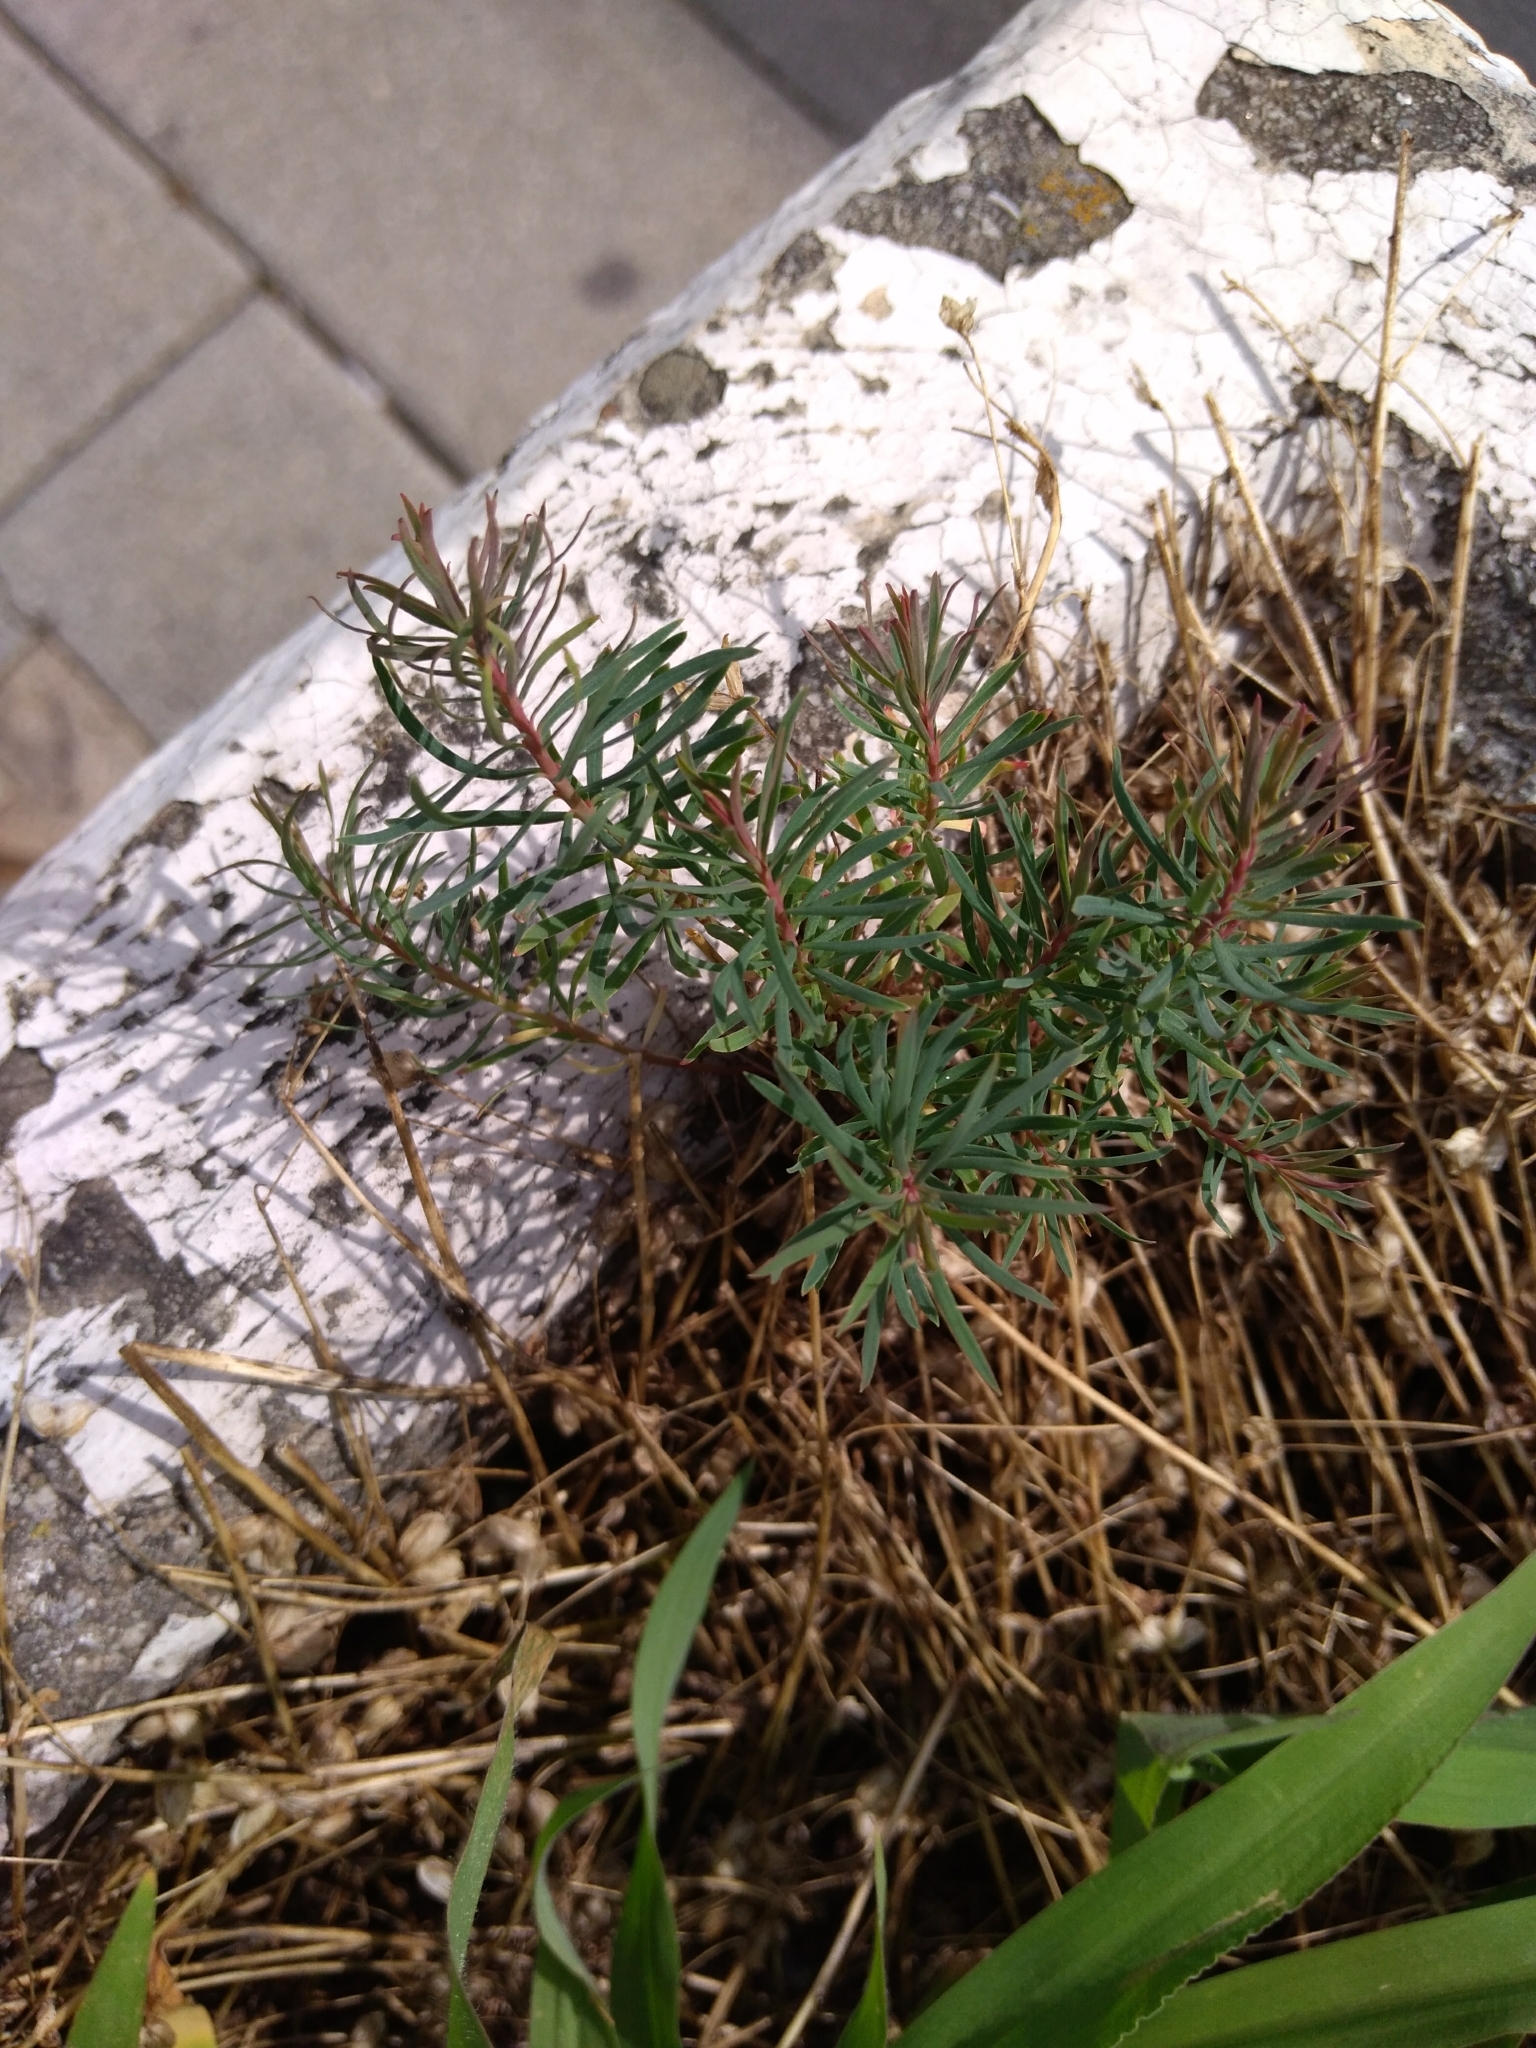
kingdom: Plantae
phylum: Tracheophyta
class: Magnoliopsida
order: Malpighiales
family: Euphorbiaceae
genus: Euphorbia
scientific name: Euphorbia cyparissias
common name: Cypress spurge
